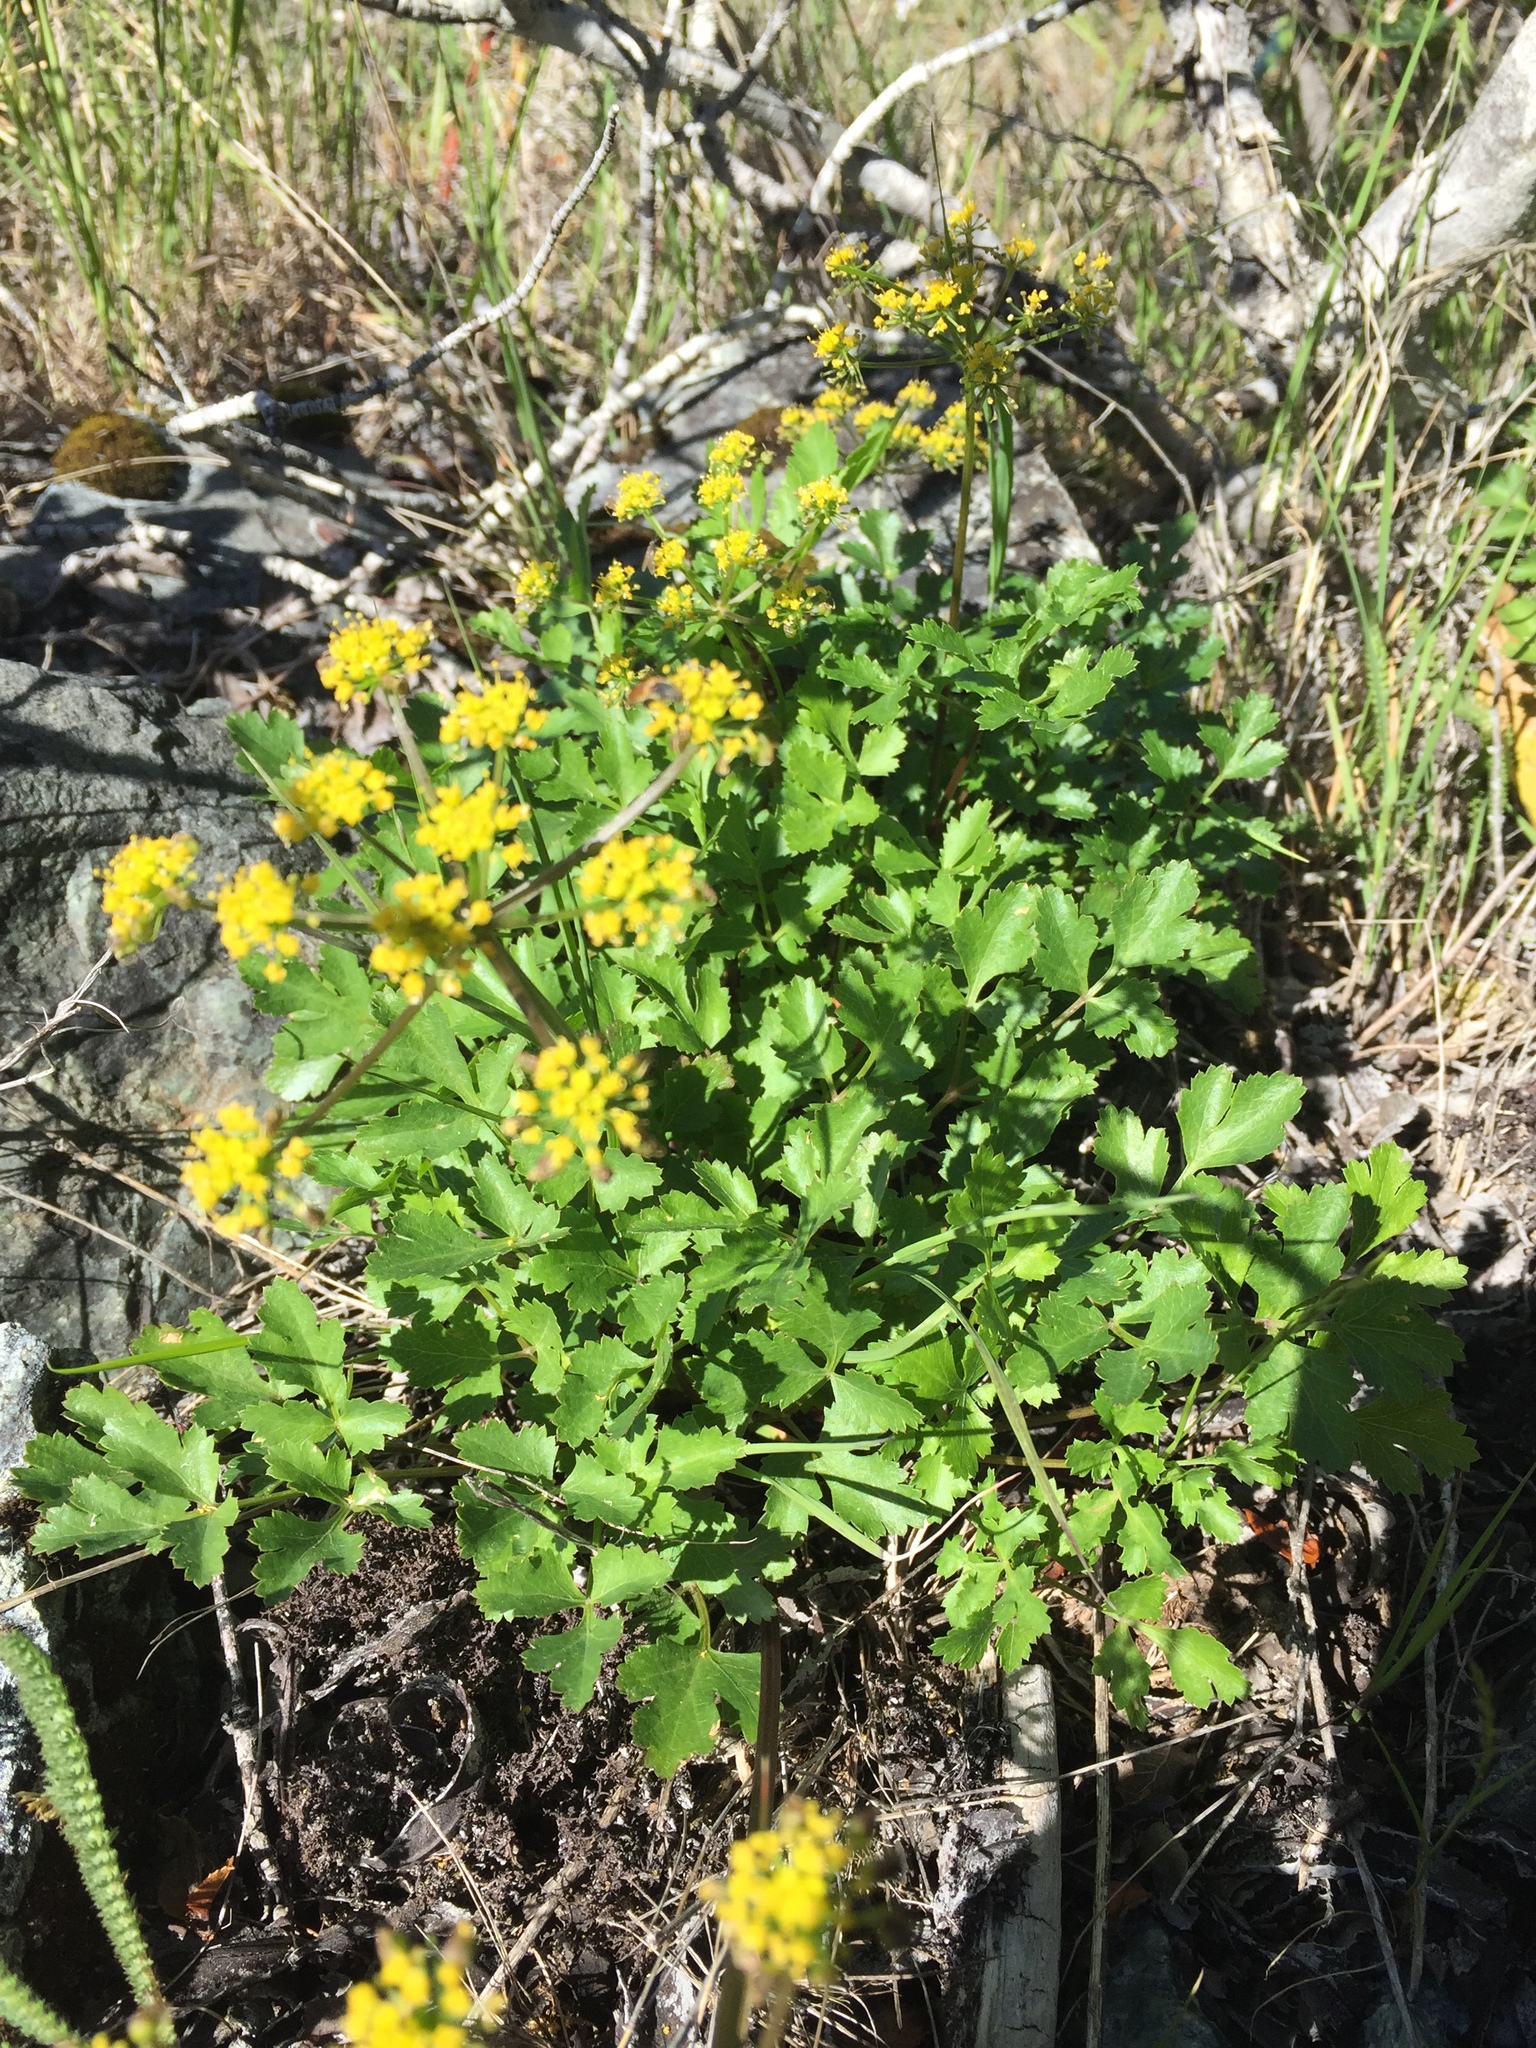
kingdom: Plantae
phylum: Tracheophyta
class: Magnoliopsida
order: Apiales
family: Apiaceae
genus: Tauschia
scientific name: Tauschia kelloggii
